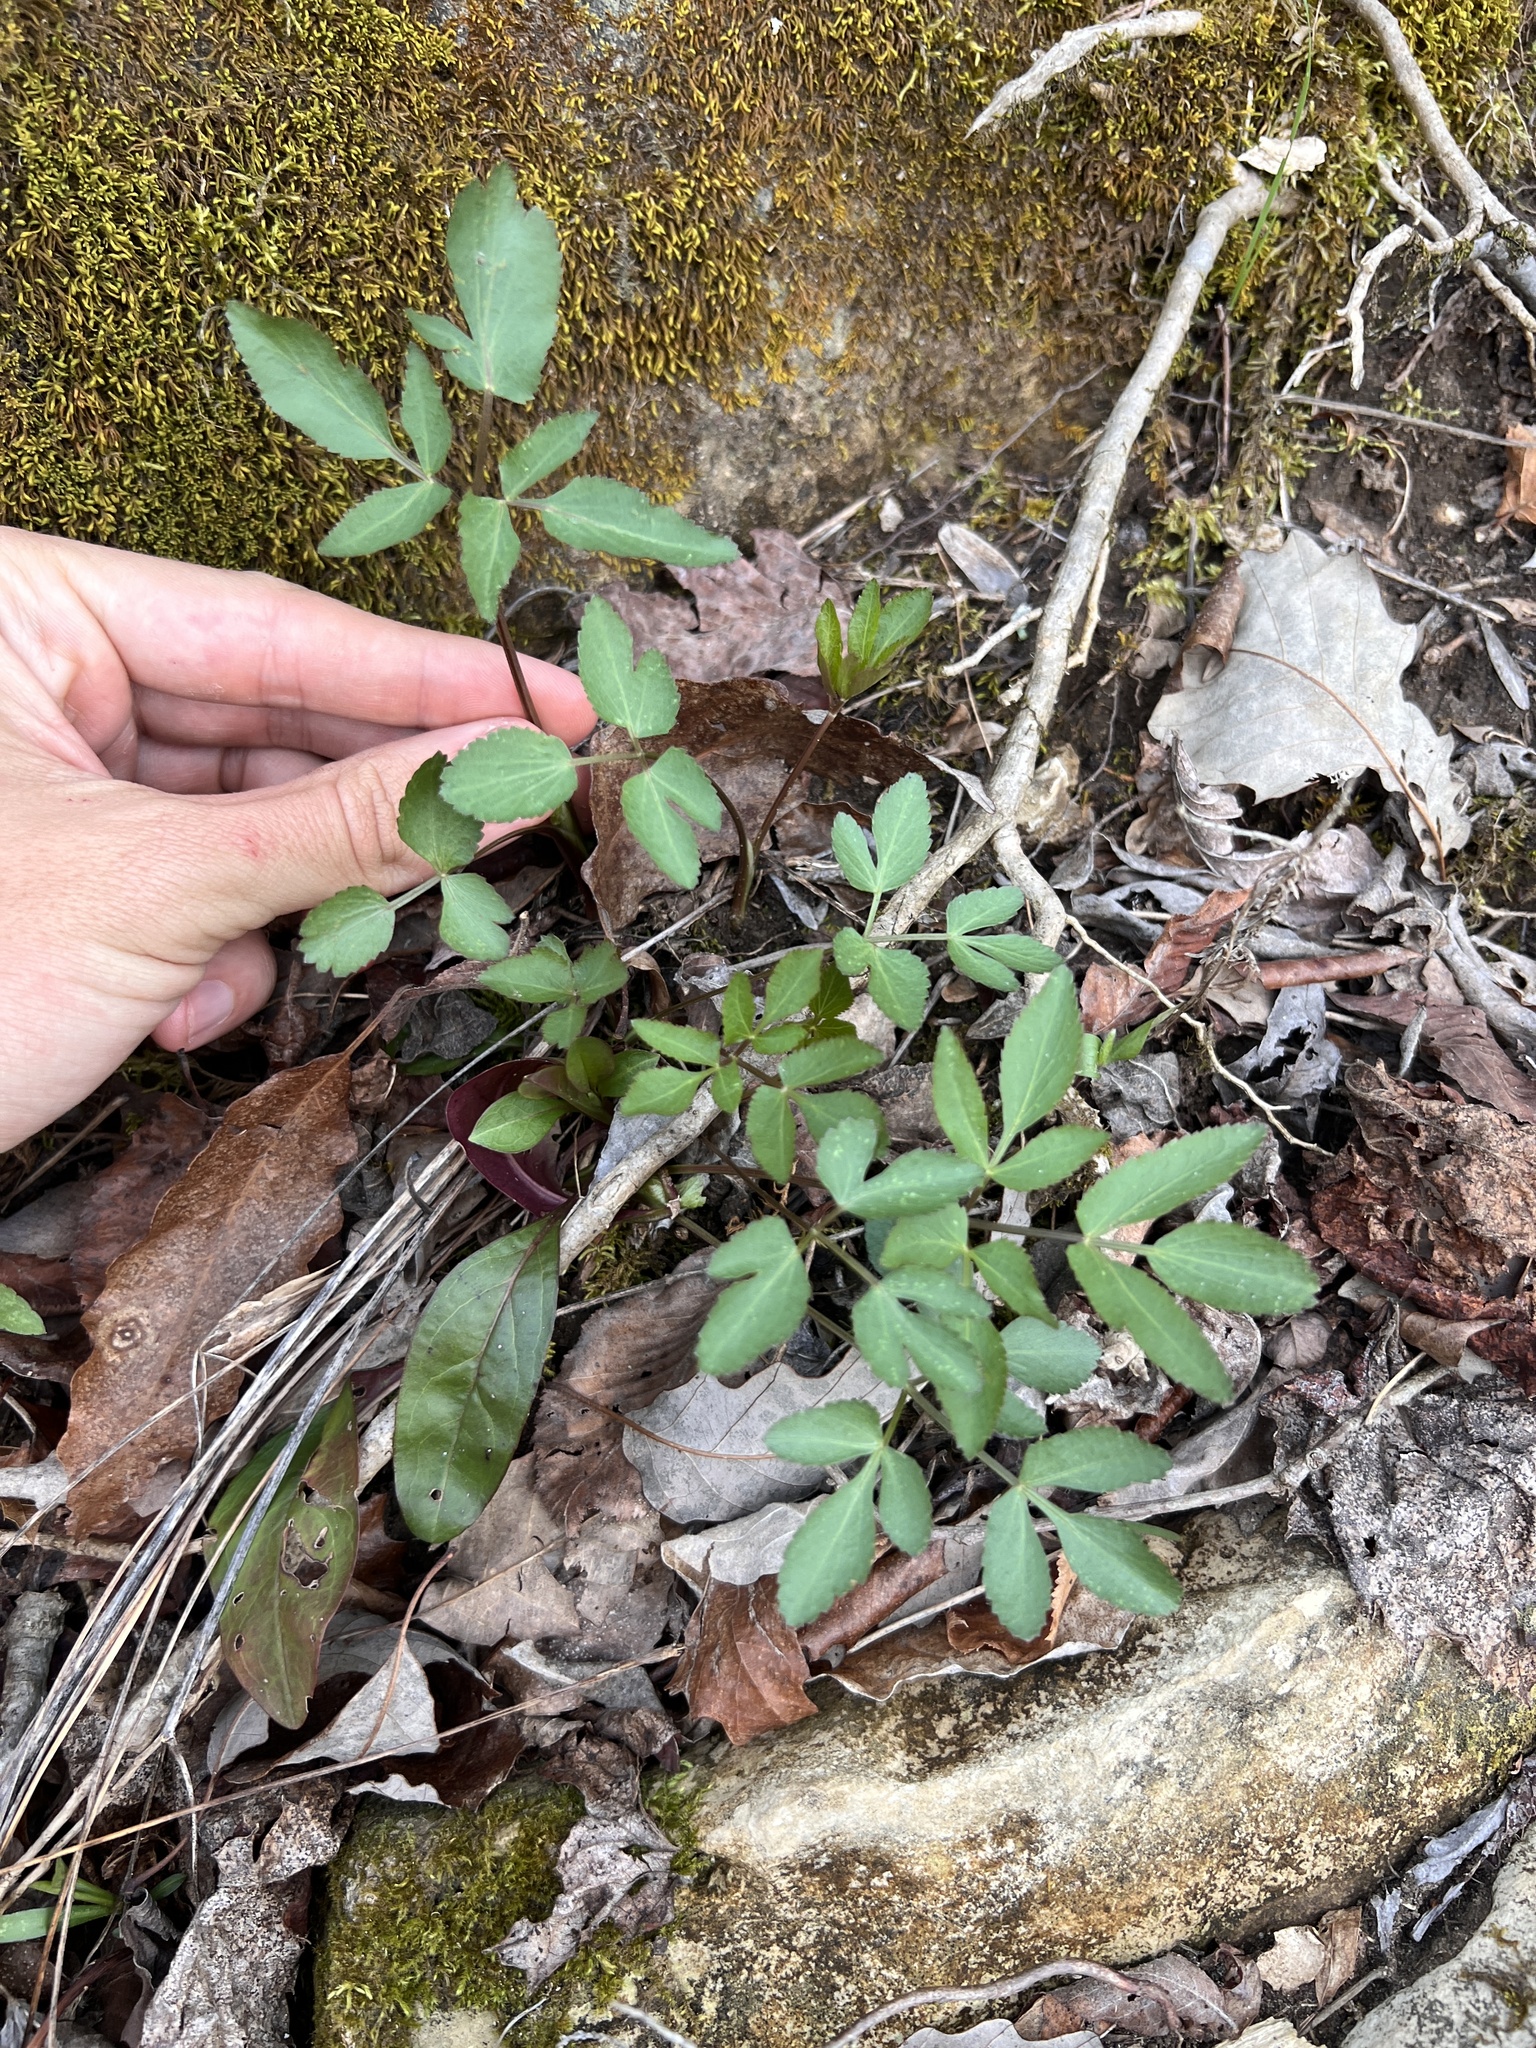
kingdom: Plantae
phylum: Tracheophyta
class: Magnoliopsida
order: Apiales
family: Apiaceae
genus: Thaspium
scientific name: Thaspium trifoliatum
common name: Purple meadow-parsnip
